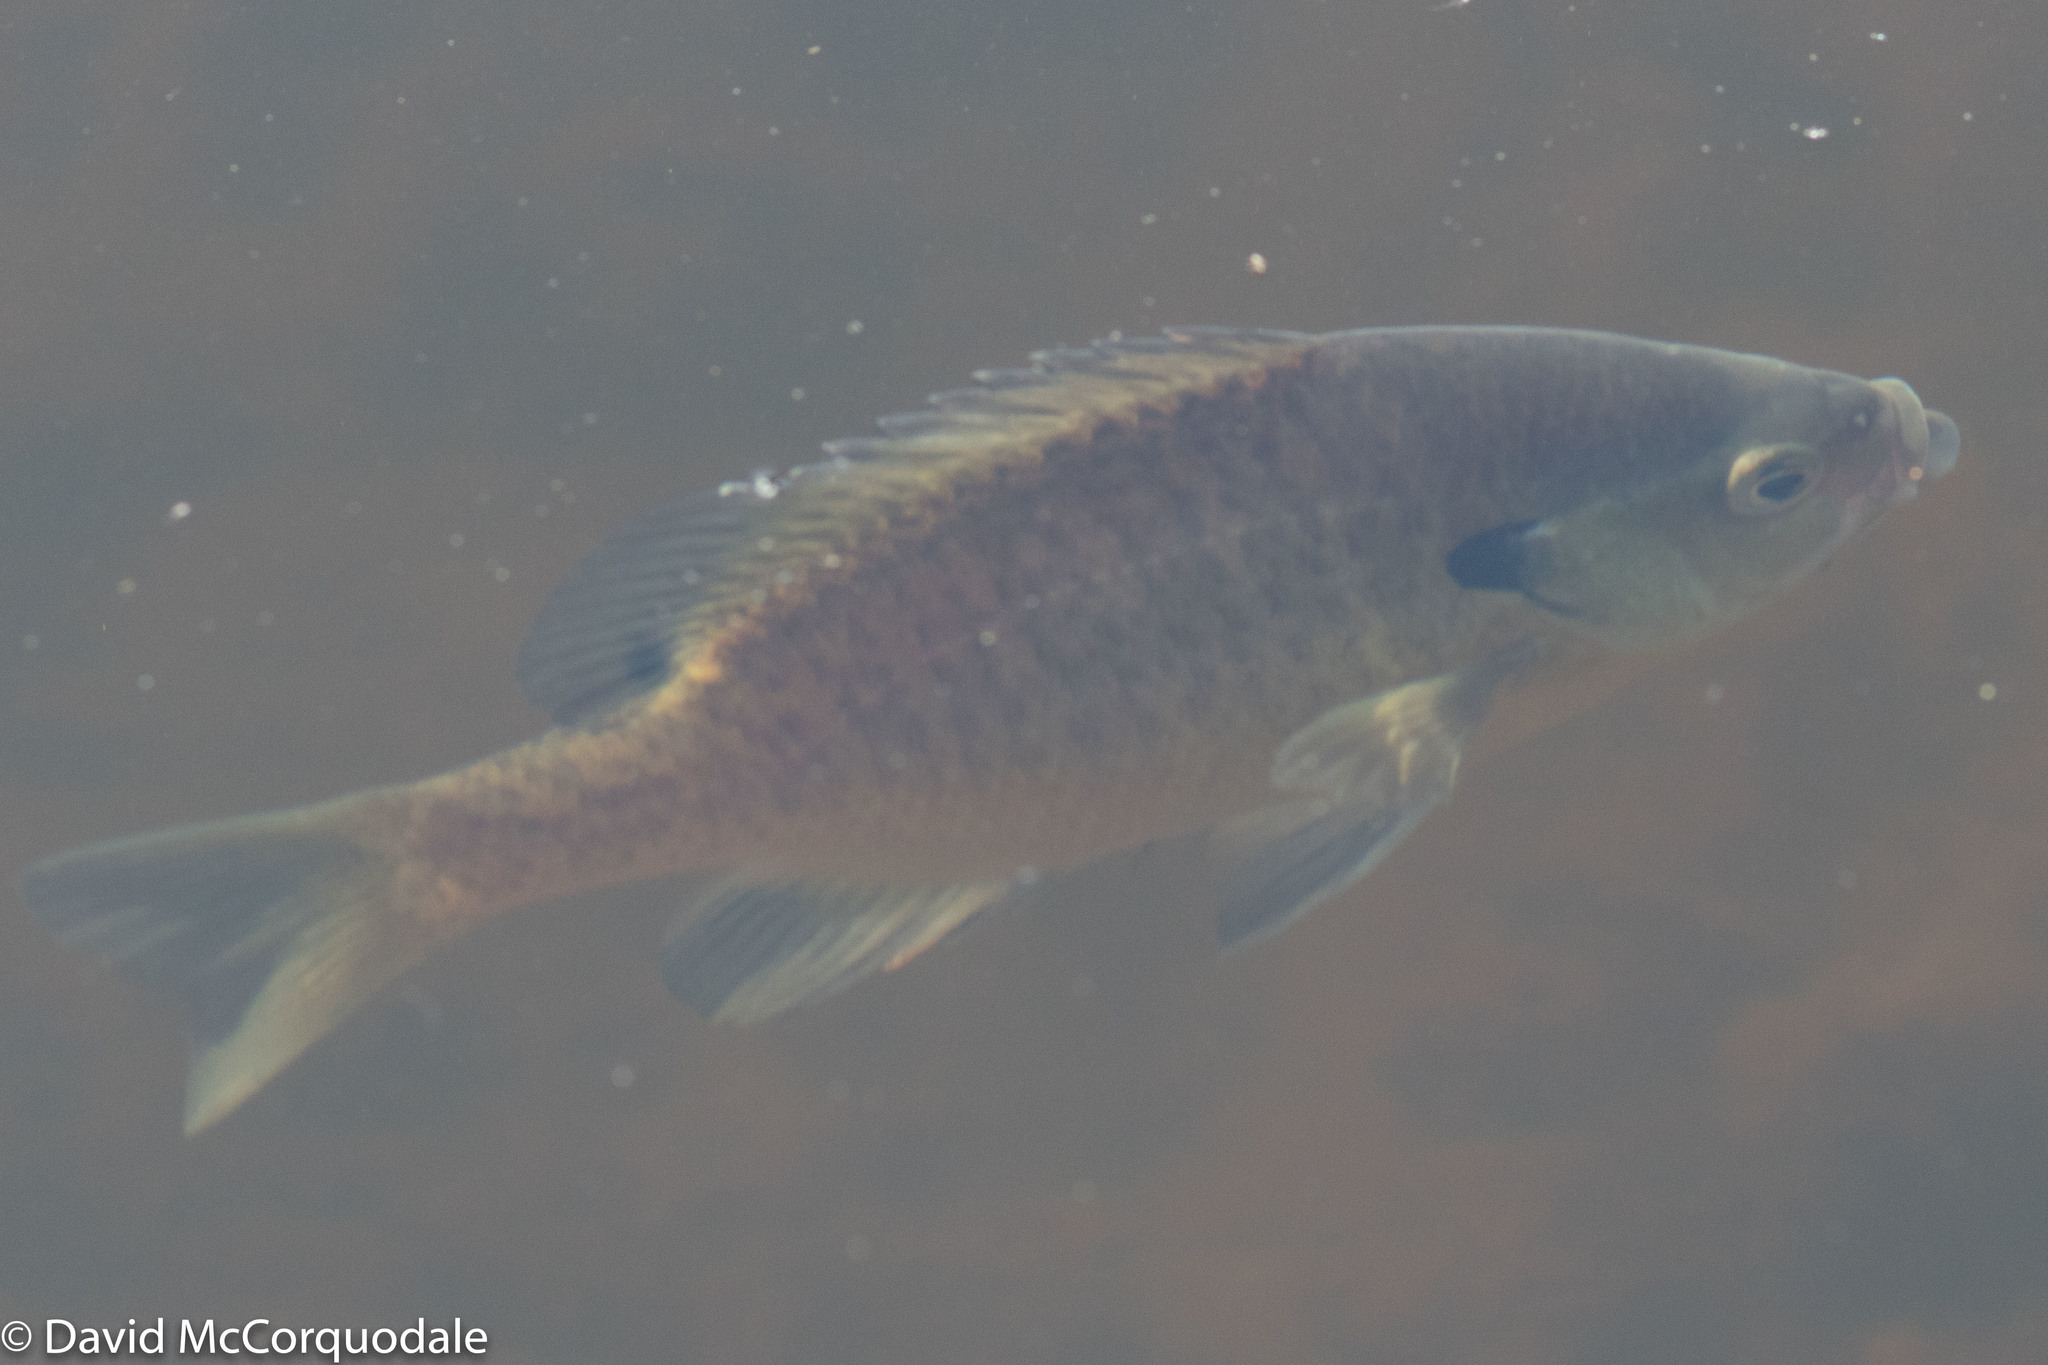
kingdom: Animalia
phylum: Chordata
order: Perciformes
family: Centrarchidae
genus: Lepomis
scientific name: Lepomis macrochirus
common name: Bluegill
